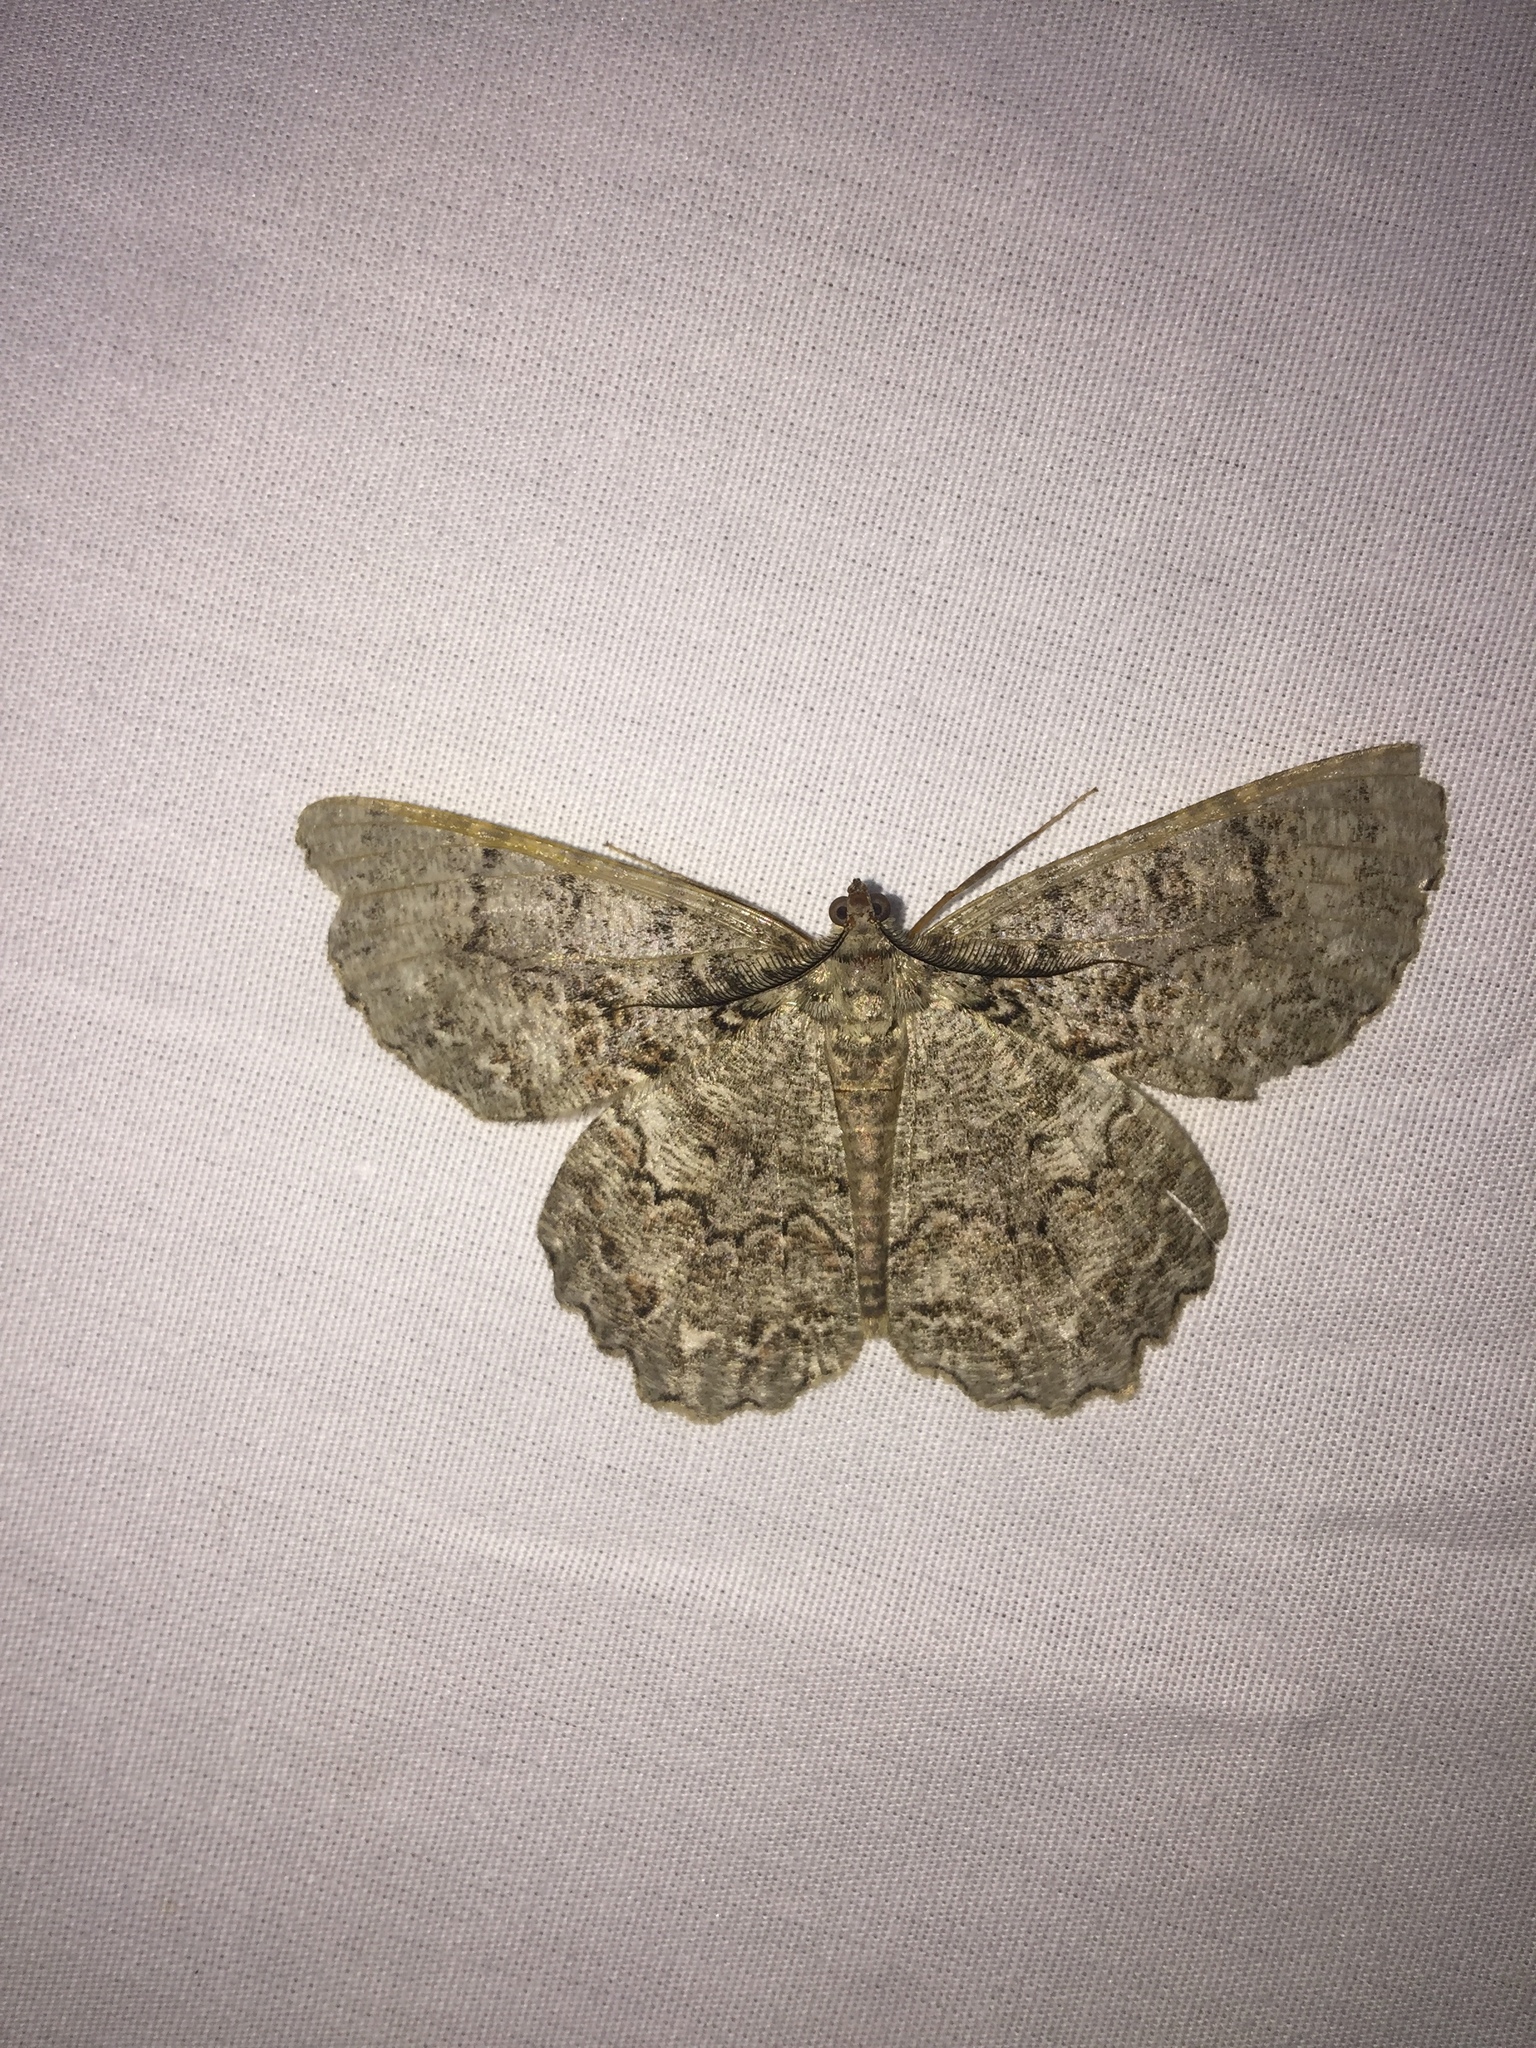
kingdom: Animalia
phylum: Arthropoda
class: Insecta
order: Lepidoptera
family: Geometridae
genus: Epimecis
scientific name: Epimecis hortaria
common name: Tulip-tree beauty
